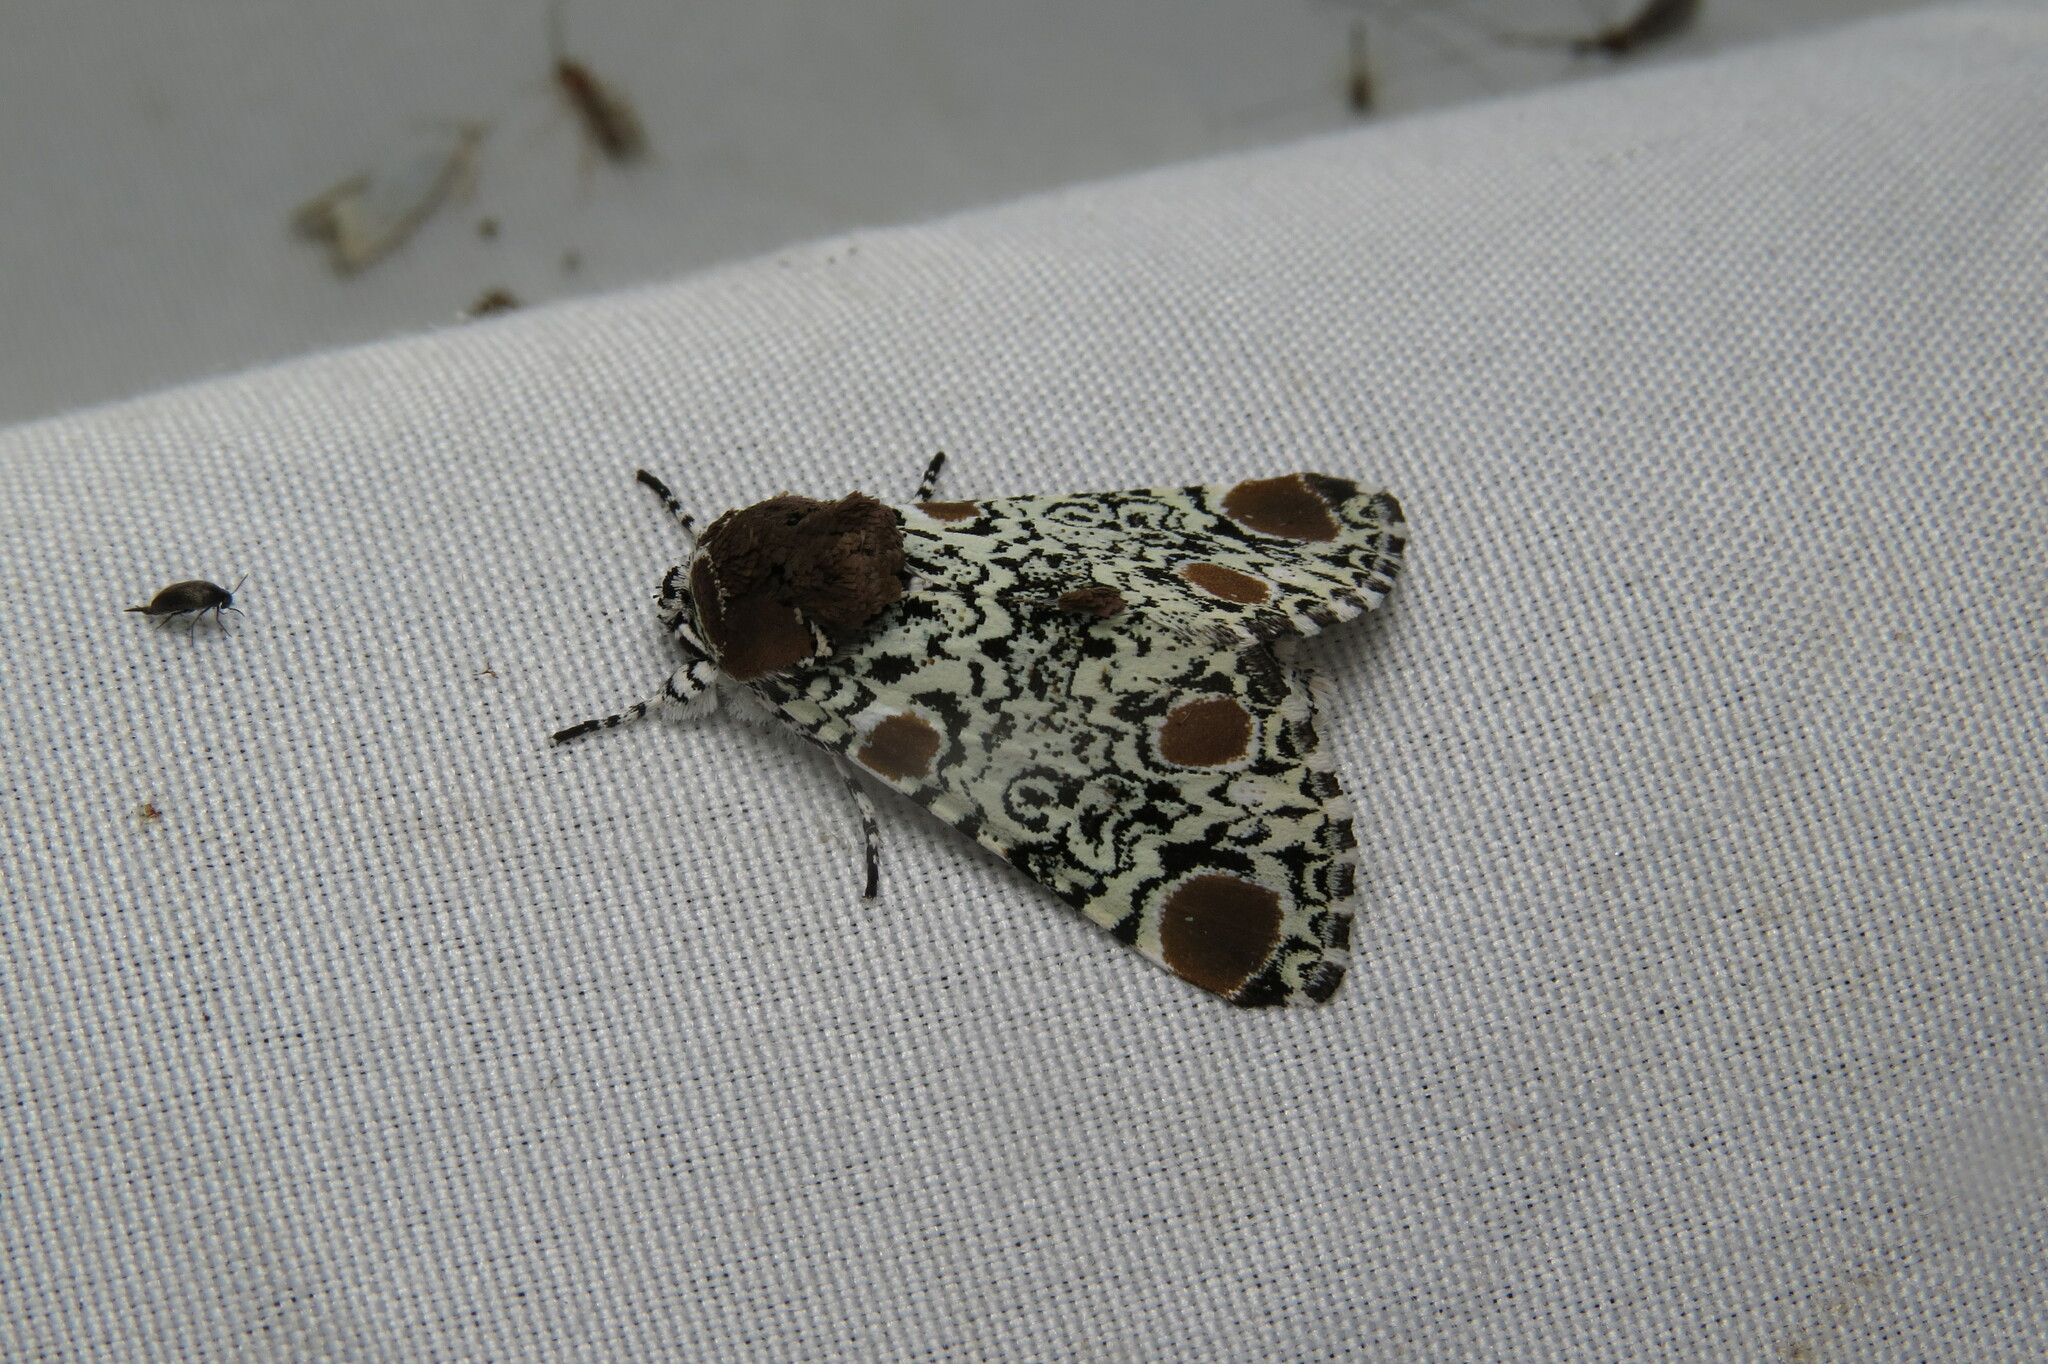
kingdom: Animalia
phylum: Arthropoda
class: Insecta
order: Lepidoptera
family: Noctuidae
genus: Harrisimemna
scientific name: Harrisimemna trisignata
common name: Harris threespot
